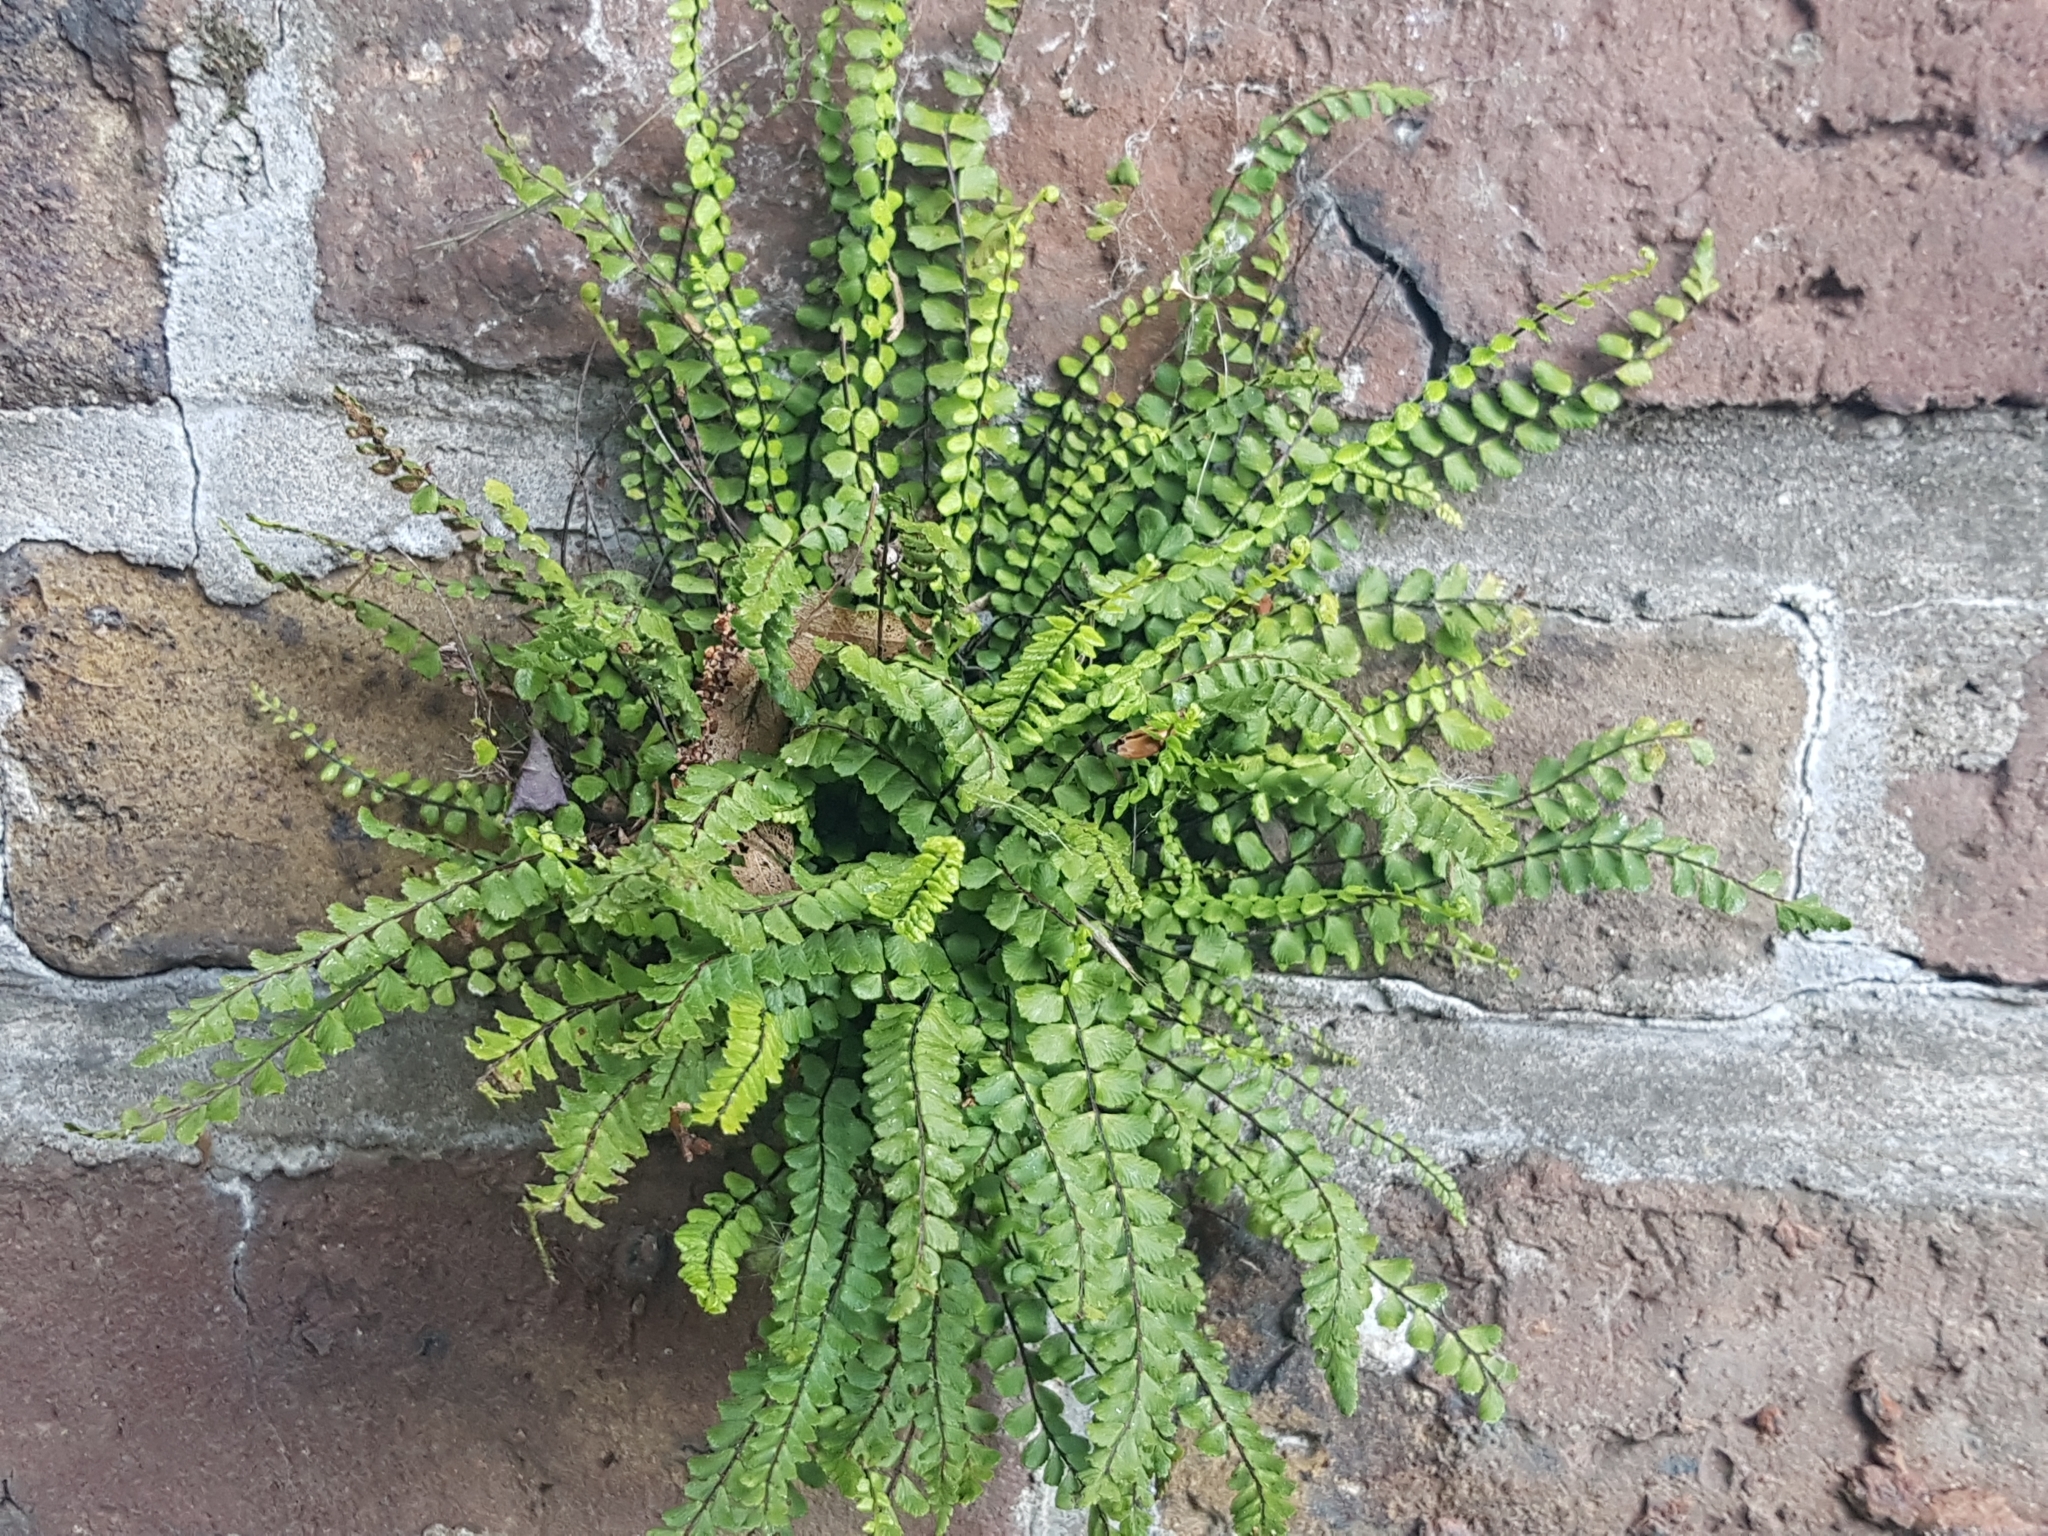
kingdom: Plantae
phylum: Tracheophyta
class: Polypodiopsida
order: Polypodiales
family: Aspleniaceae
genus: Asplenium
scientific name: Asplenium trichomanes
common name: Maidenhair spleenwort
